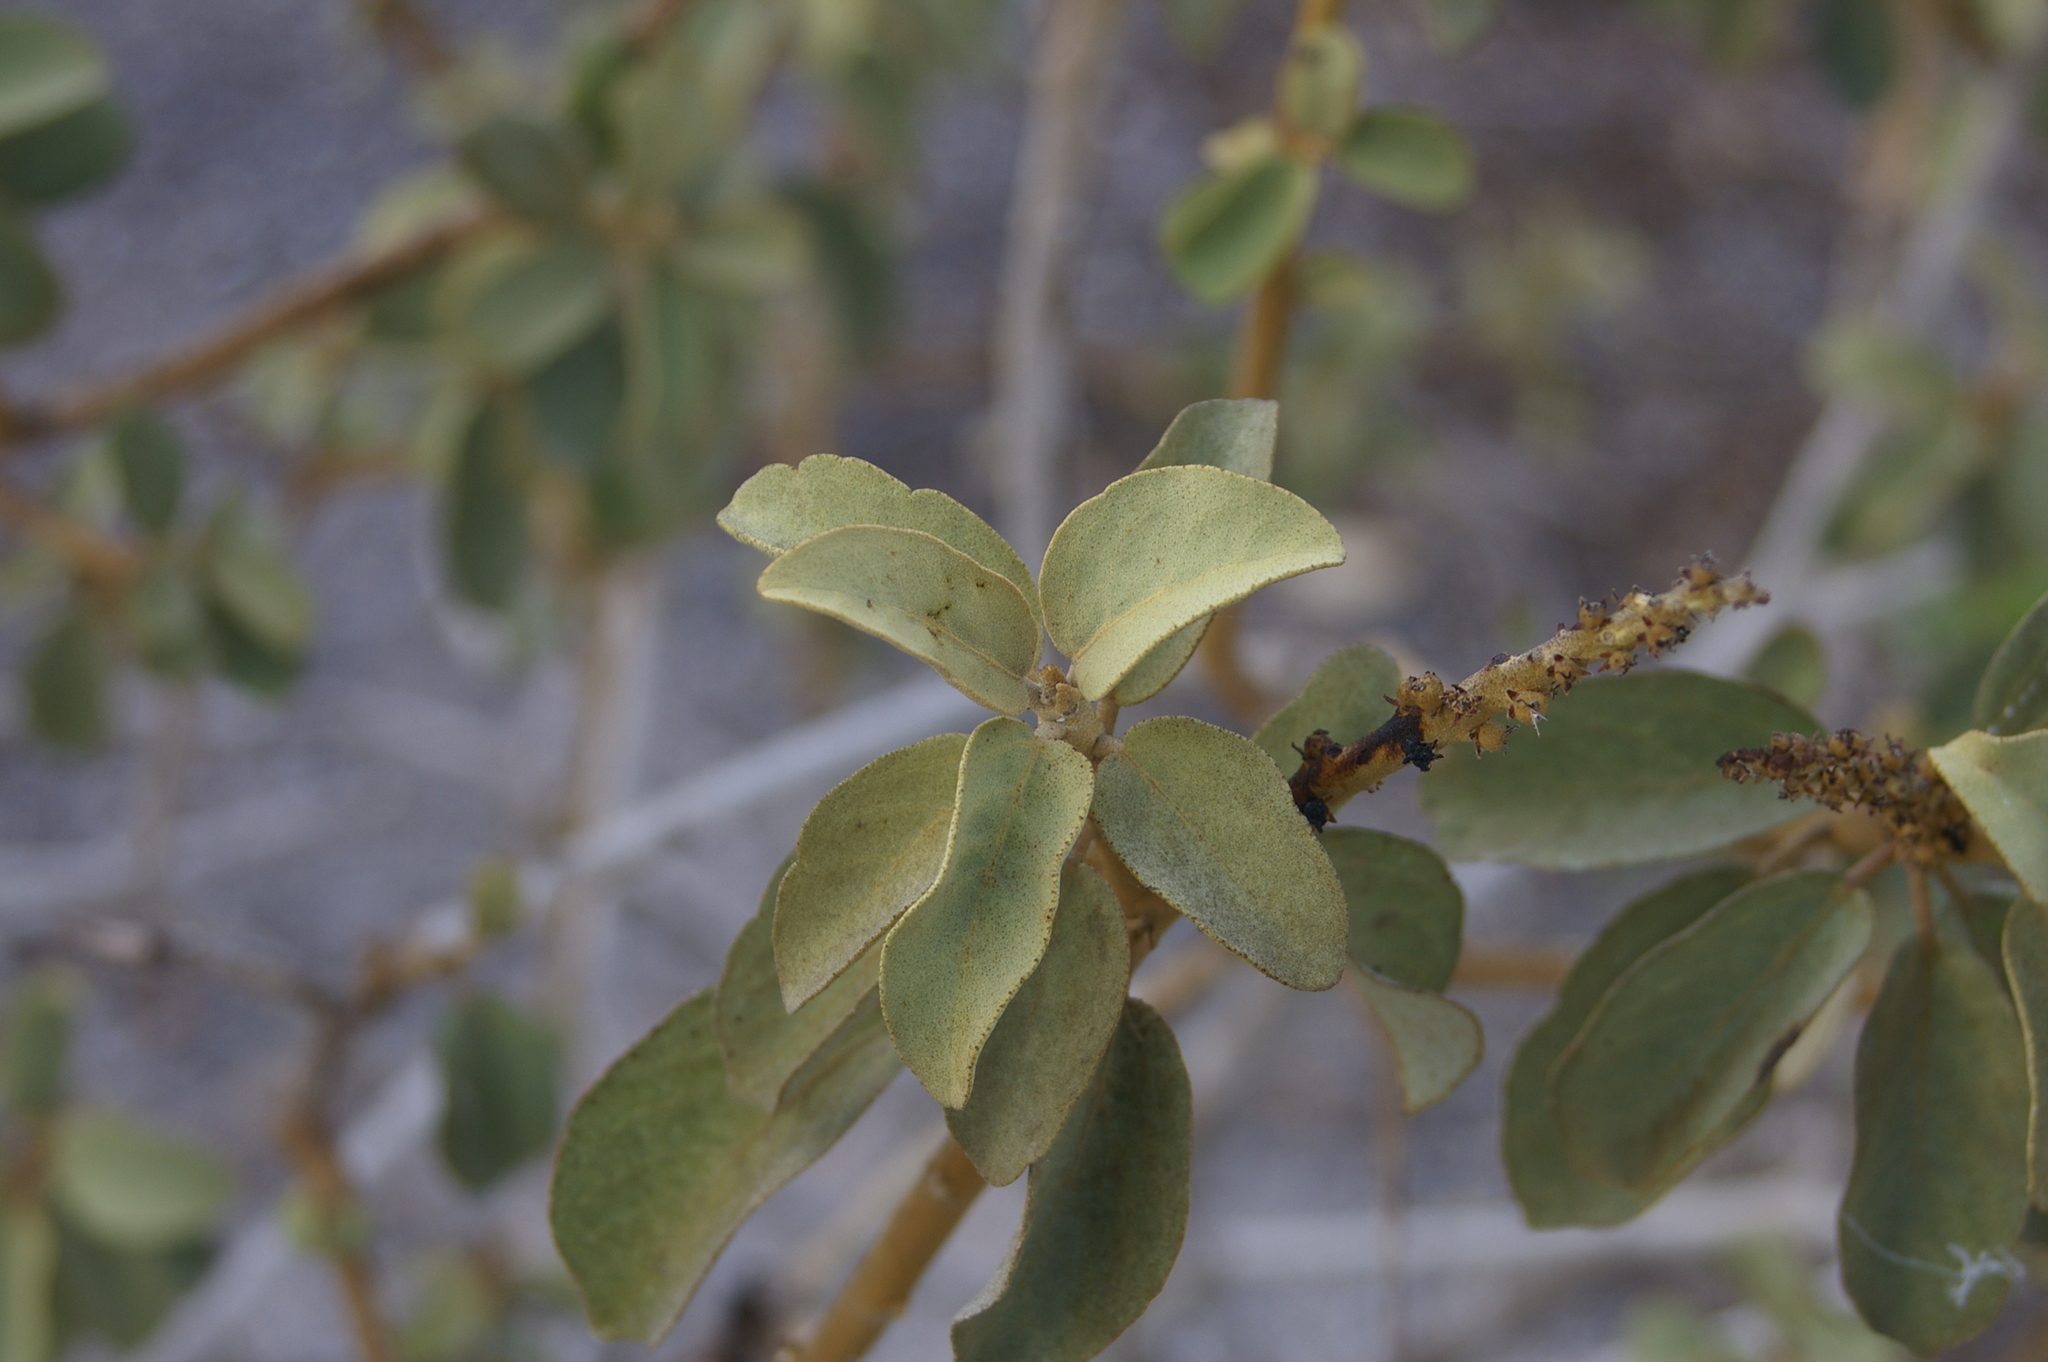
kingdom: Plantae
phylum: Tracheophyta
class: Magnoliopsida
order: Malpighiales
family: Euphorbiaceae
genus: Croton
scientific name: Croton scouleri
